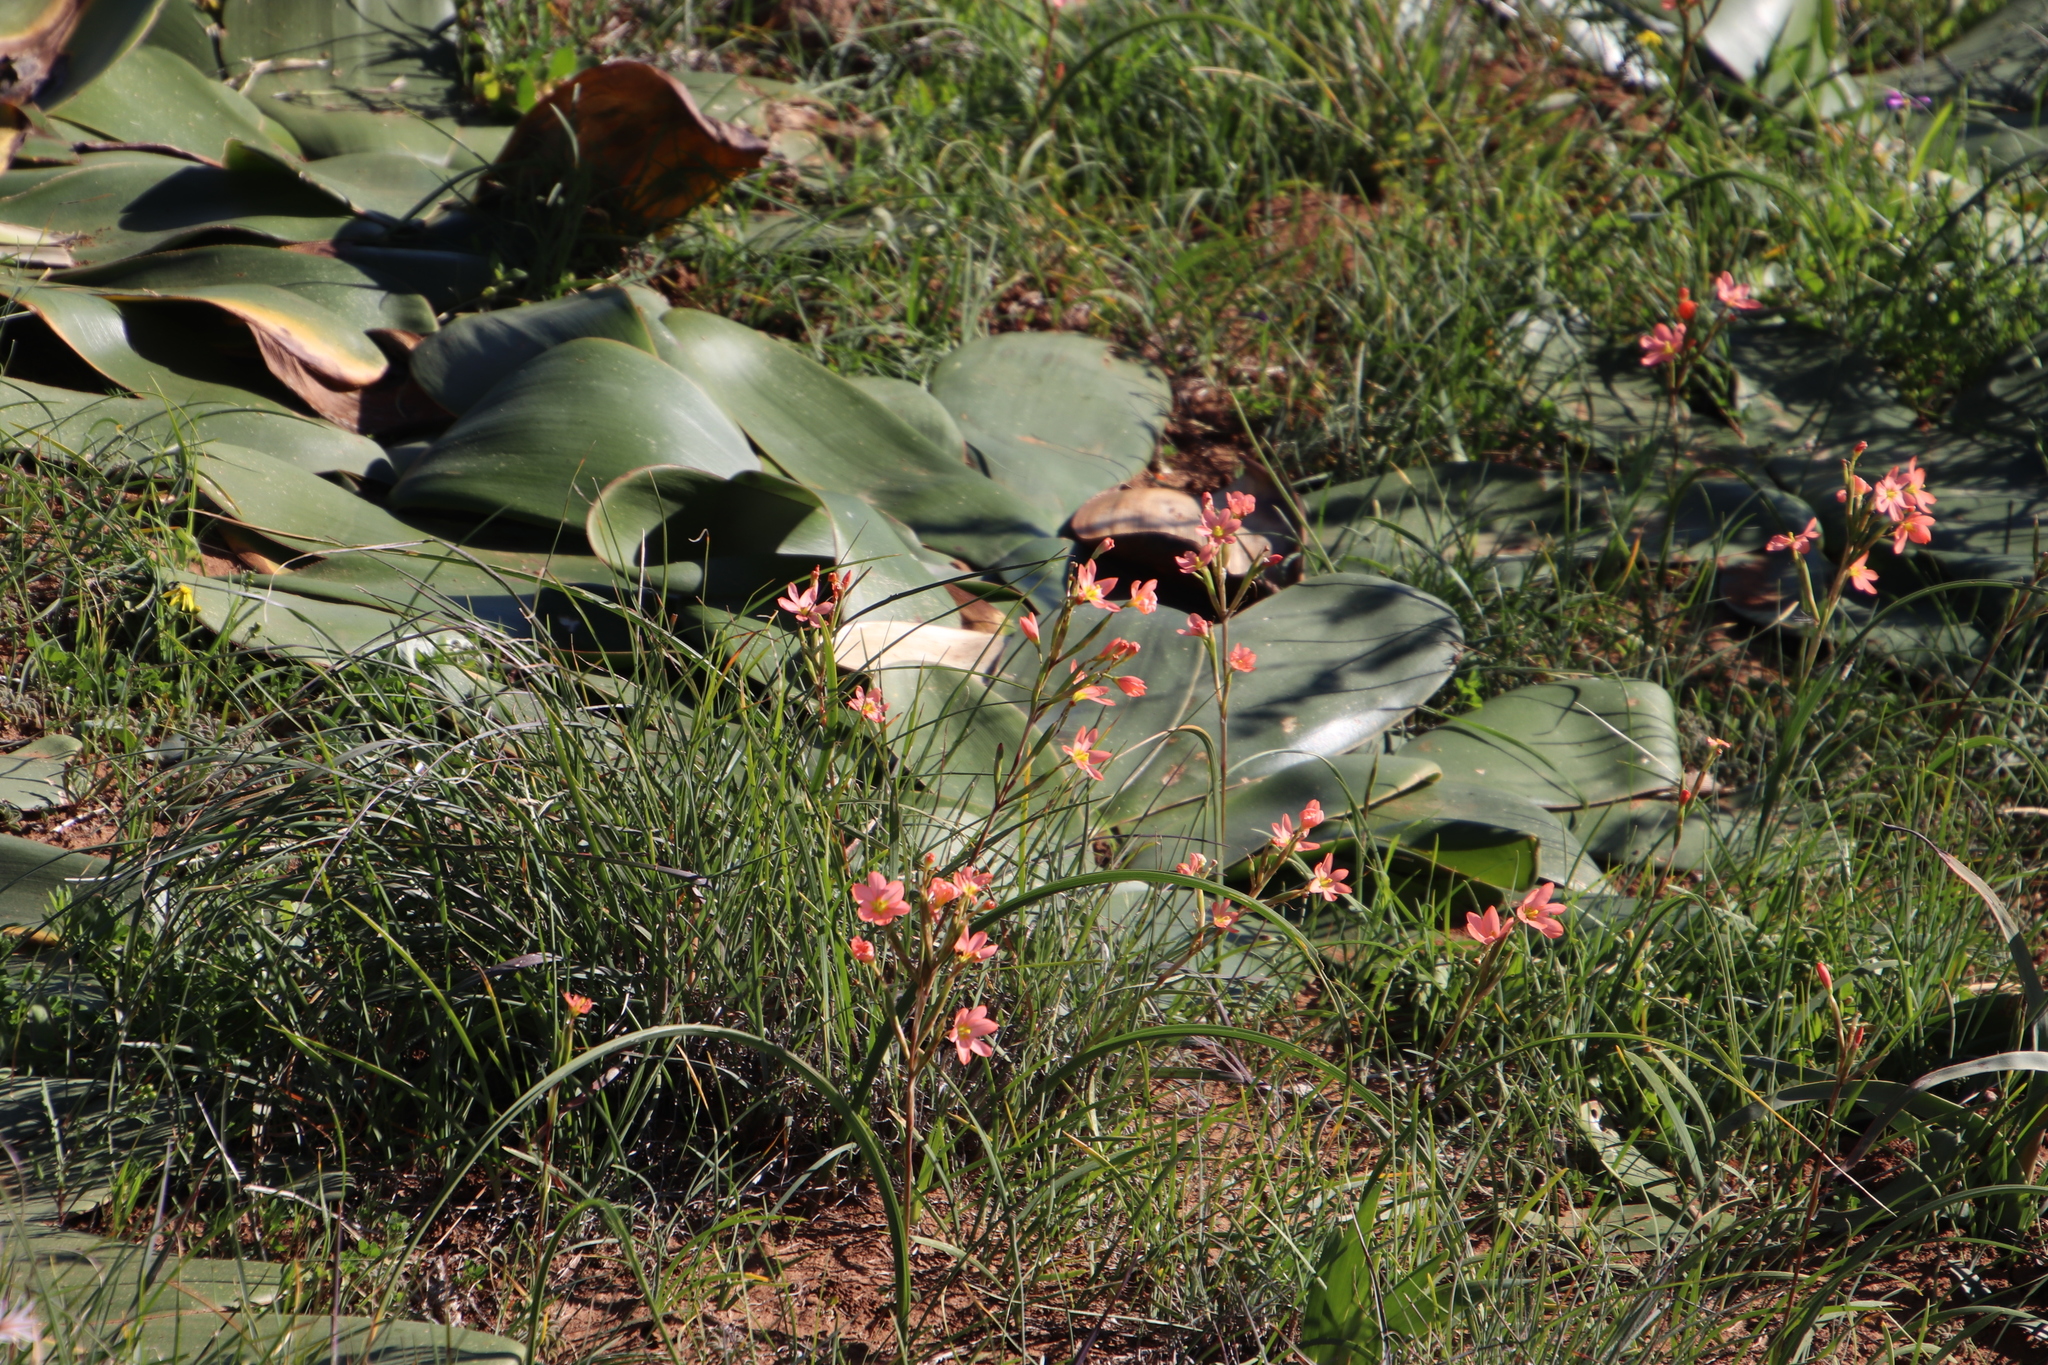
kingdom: Plantae
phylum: Tracheophyta
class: Liliopsida
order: Asparagales
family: Iridaceae
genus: Moraea
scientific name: Moraea miniata
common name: Two-leaf cape-tulip
